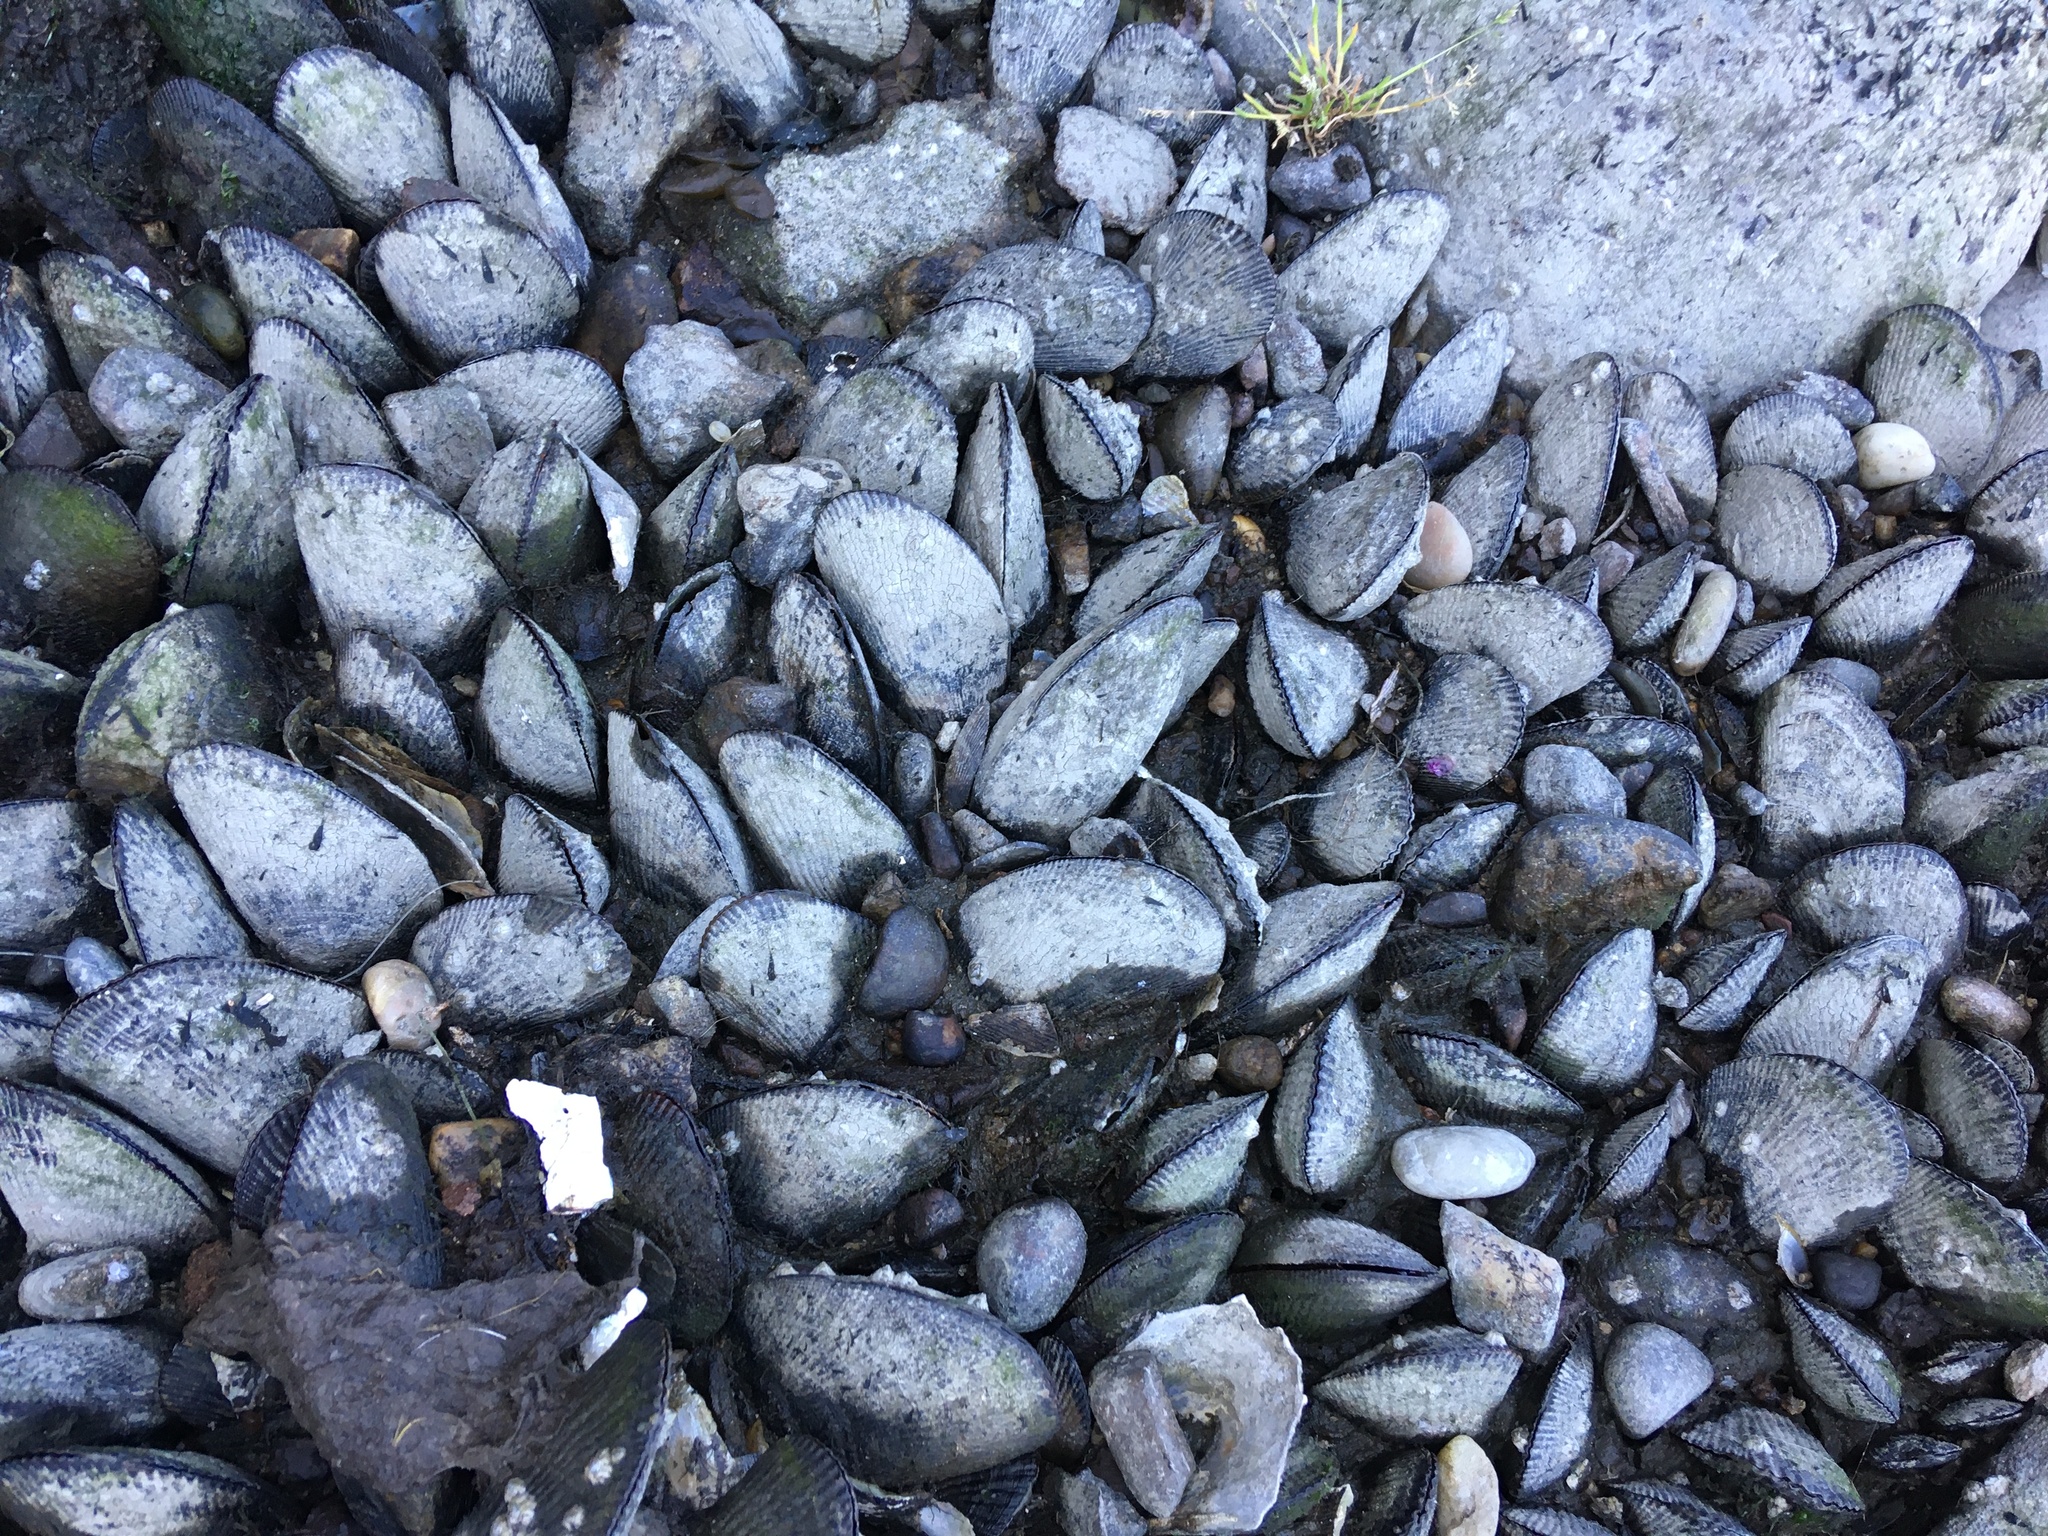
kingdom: Animalia
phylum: Mollusca
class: Bivalvia
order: Mytilida
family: Mytilidae
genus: Geukensia
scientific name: Geukensia demissa
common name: Ribbed mussel
